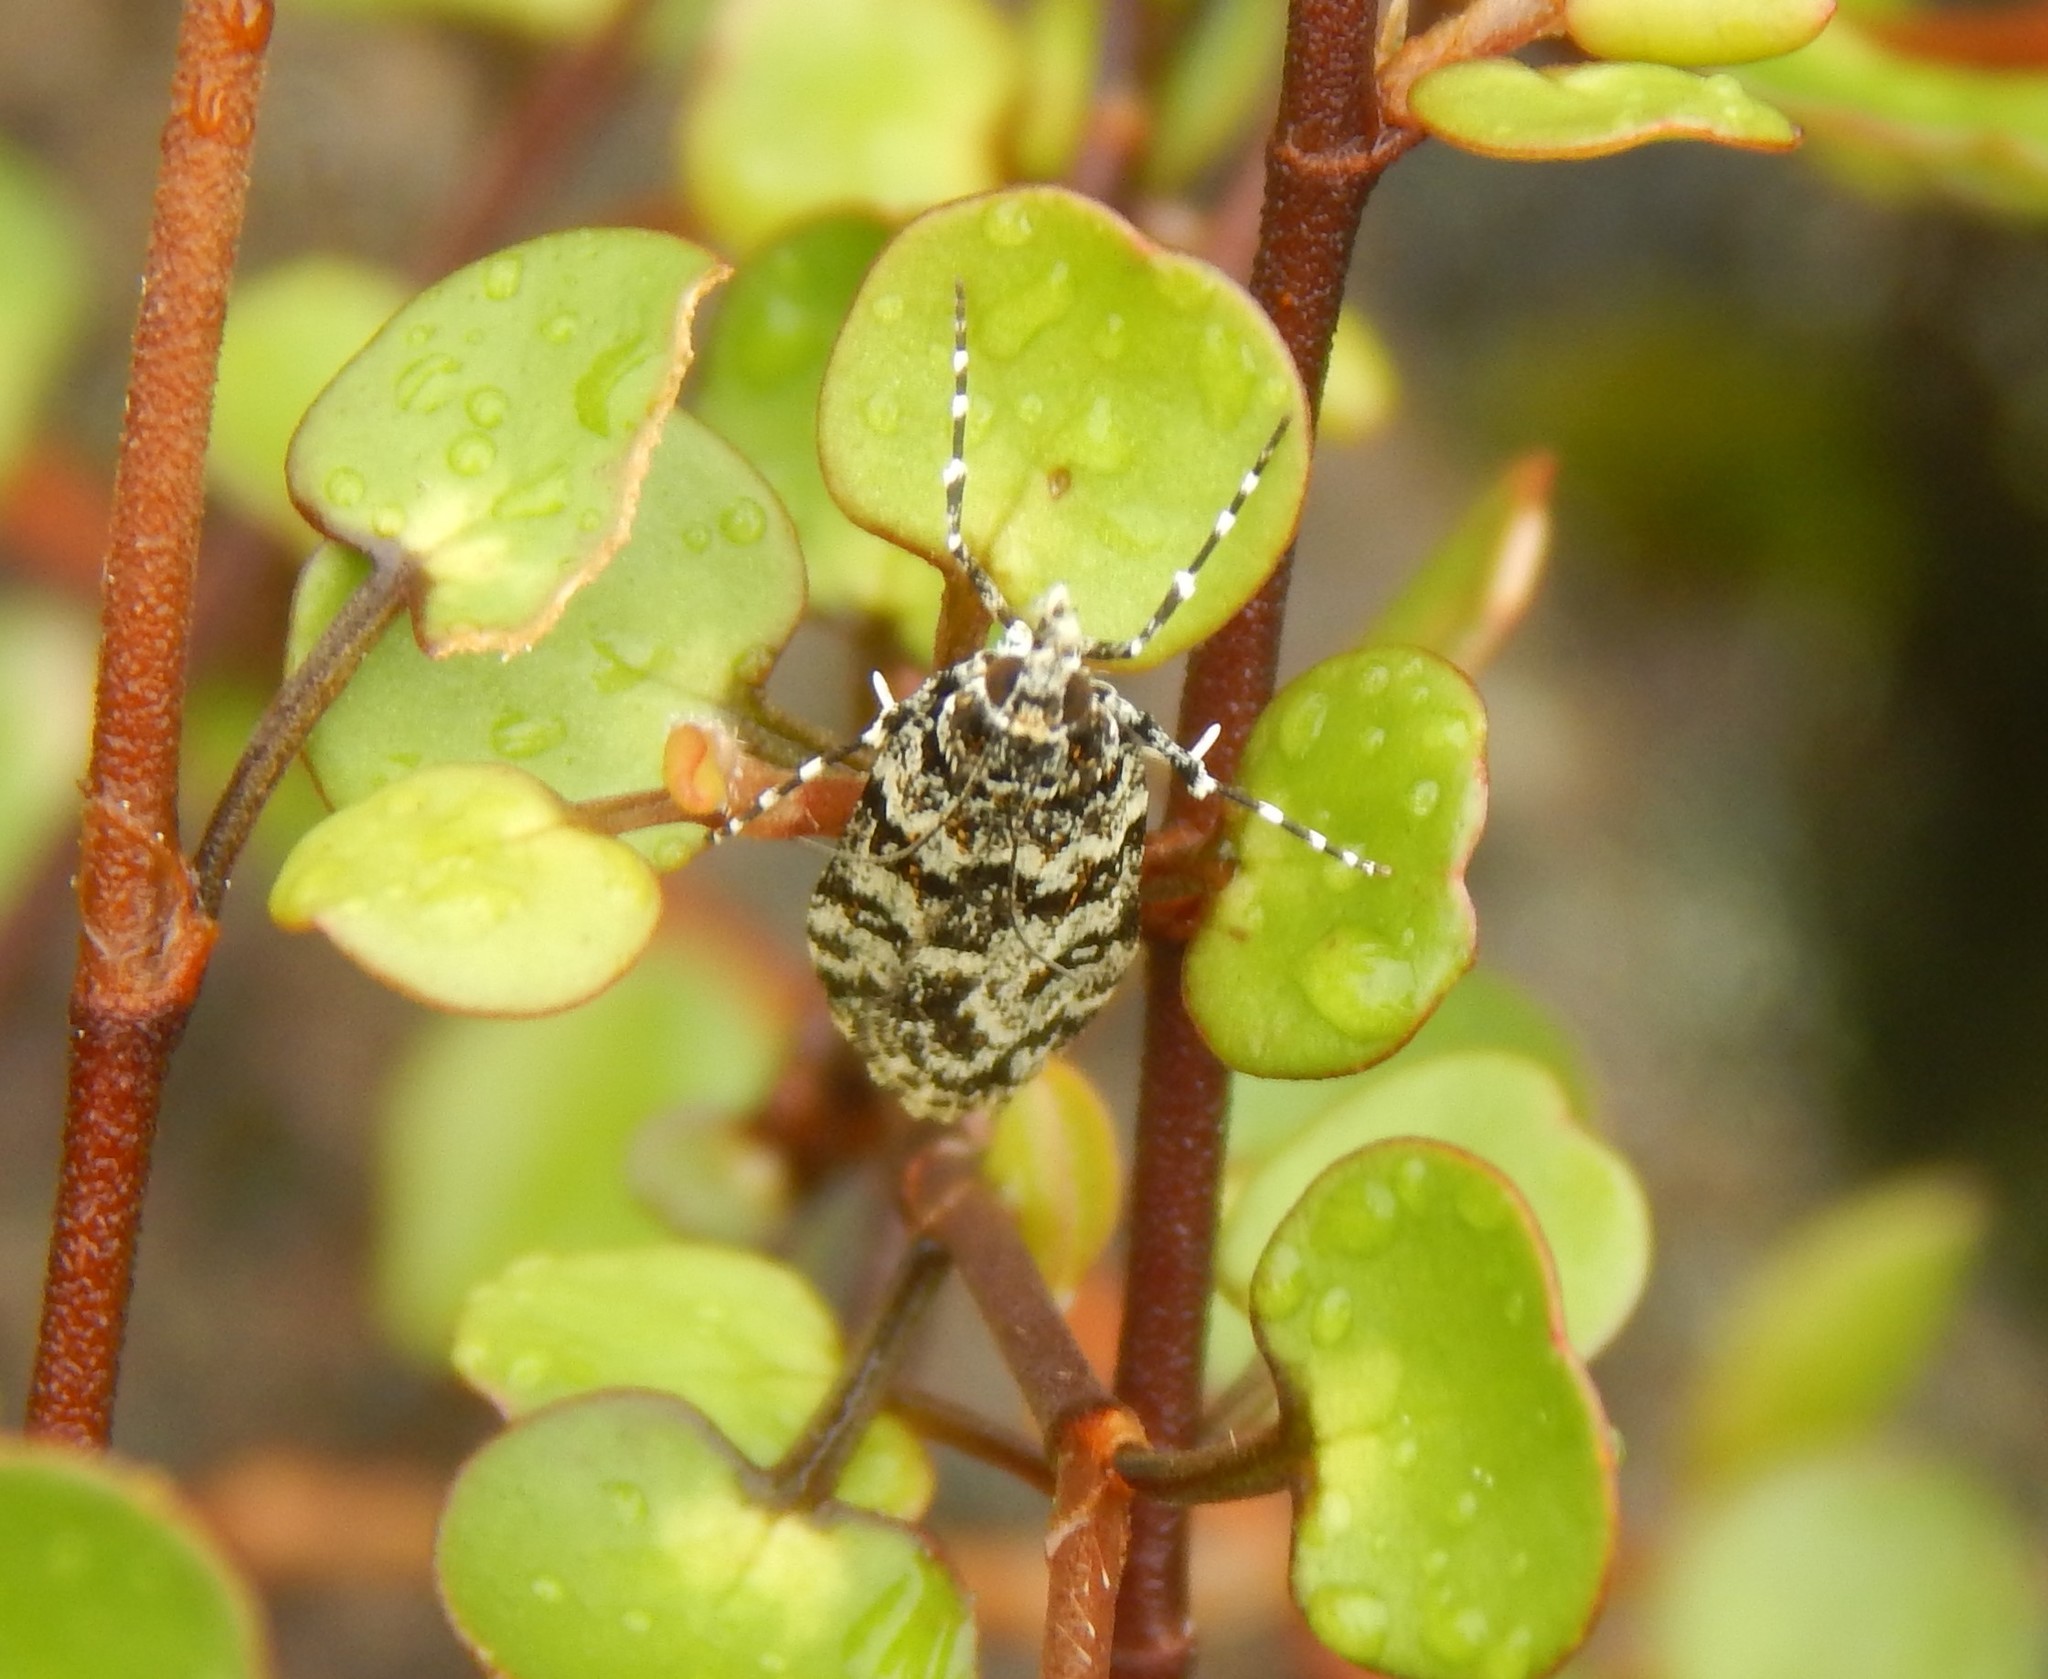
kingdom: Animalia
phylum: Arthropoda
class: Insecta
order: Lepidoptera
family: Crambidae
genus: Eudonia
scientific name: Eudonia
